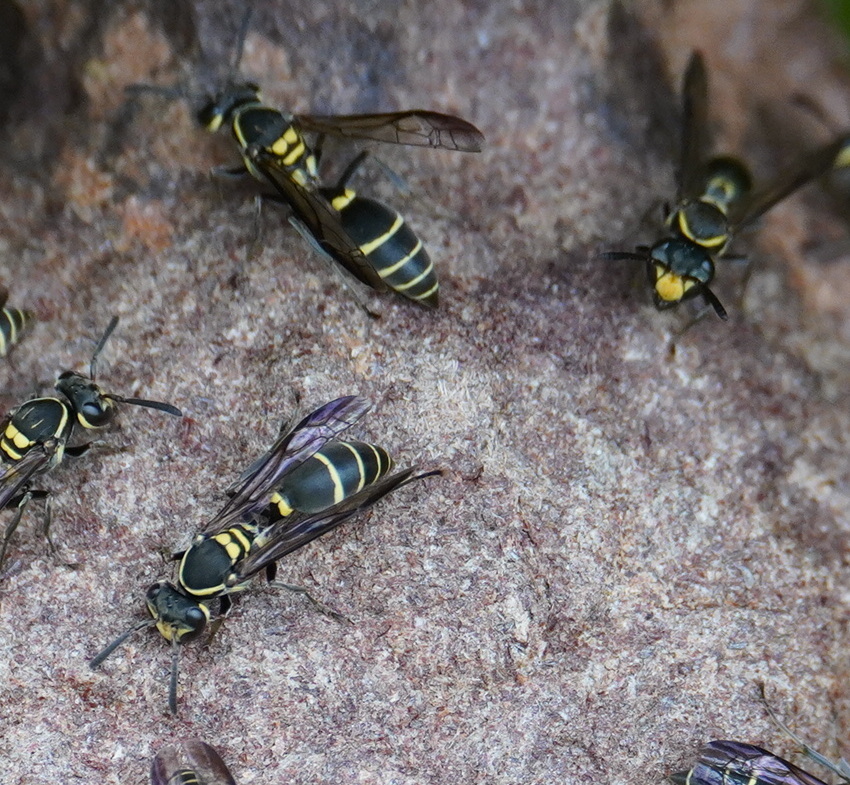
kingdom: Animalia
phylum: Arthropoda
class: Insecta
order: Hymenoptera
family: Eumenidae
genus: Polybia
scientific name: Polybia occidentalis
